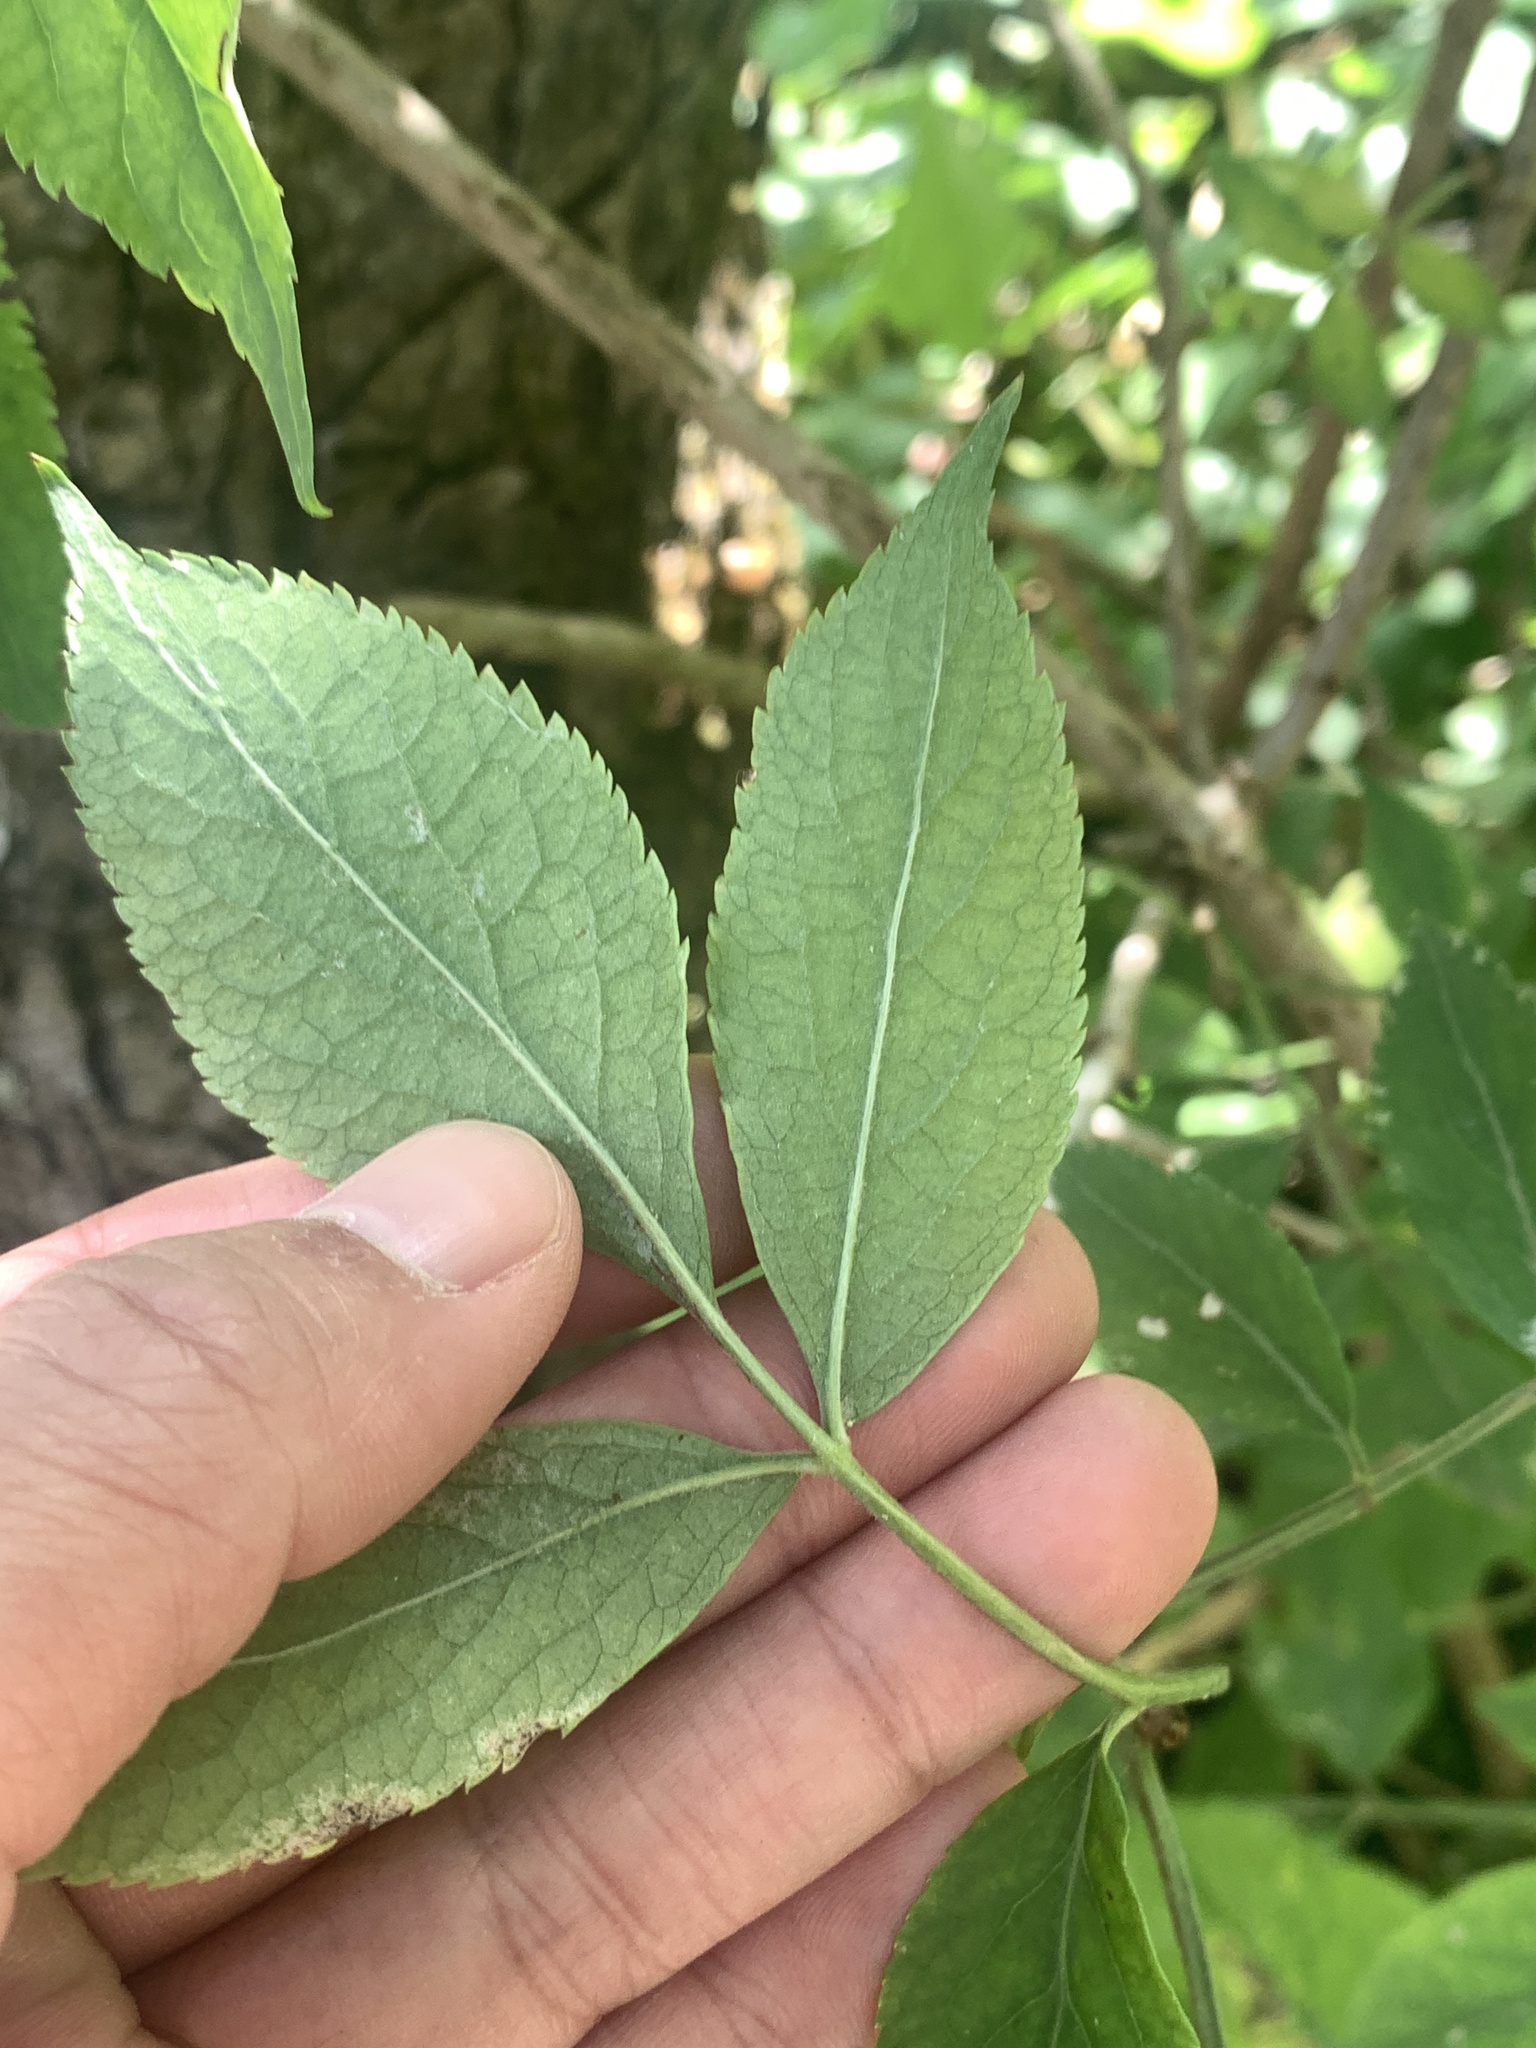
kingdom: Plantae
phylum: Tracheophyta
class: Magnoliopsida
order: Dipsacales
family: Viburnaceae
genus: Sambucus
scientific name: Sambucus nigra
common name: Elder
